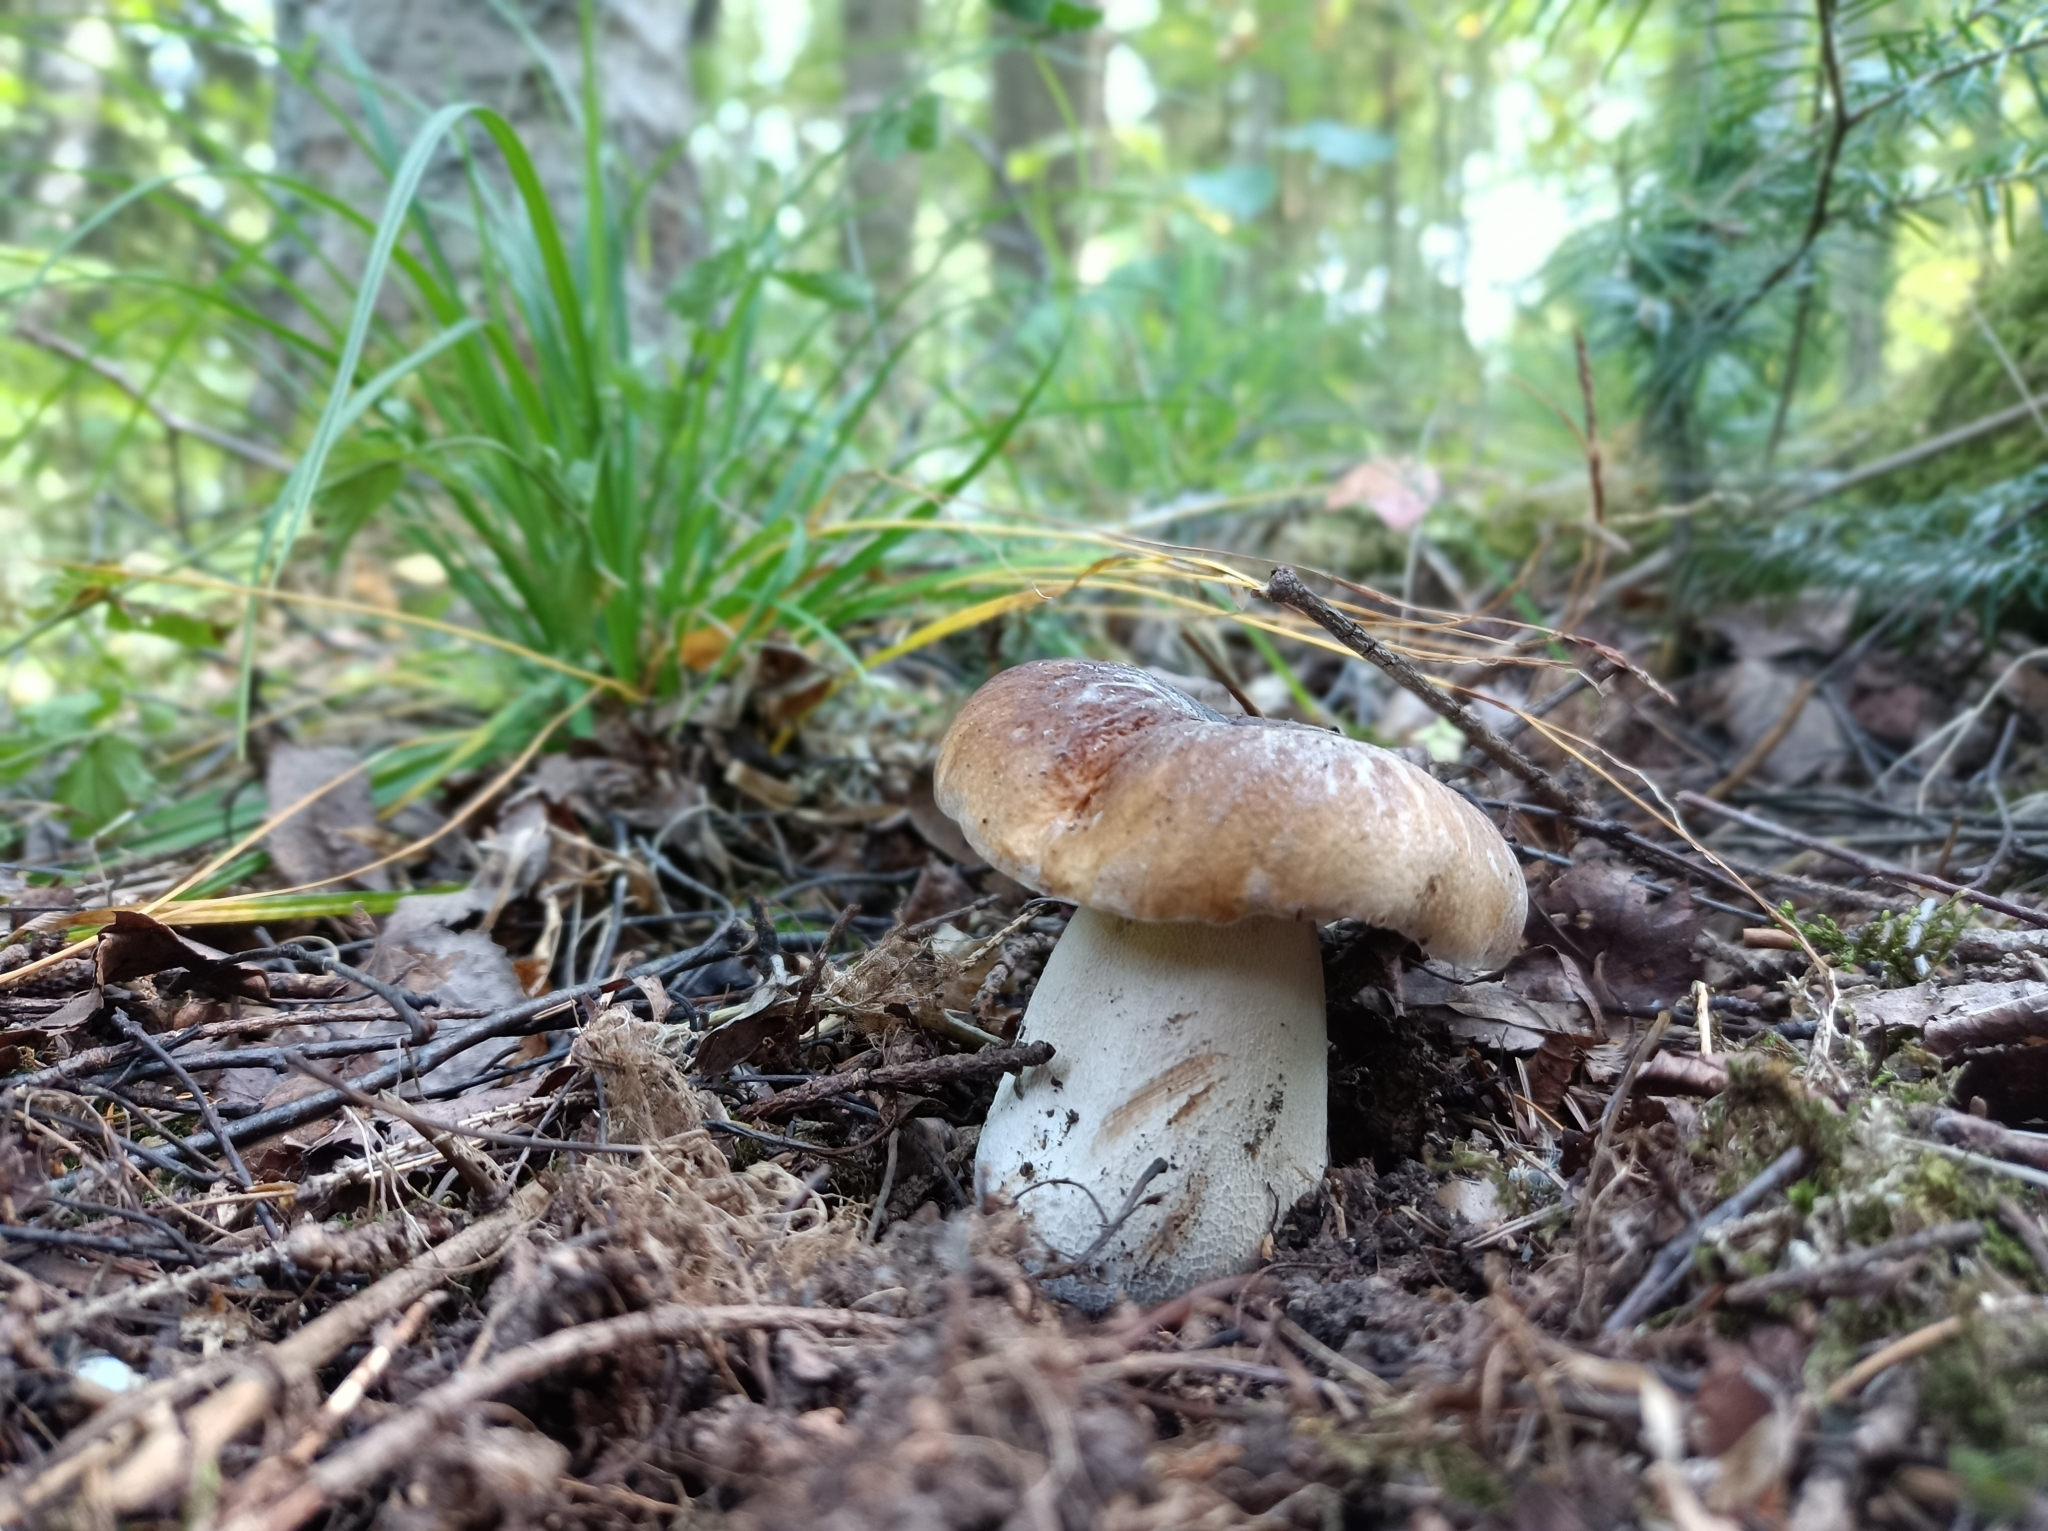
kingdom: Fungi
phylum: Basidiomycota
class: Agaricomycetes
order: Boletales
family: Boletaceae
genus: Boletus
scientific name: Boletus edulis
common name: Cep
